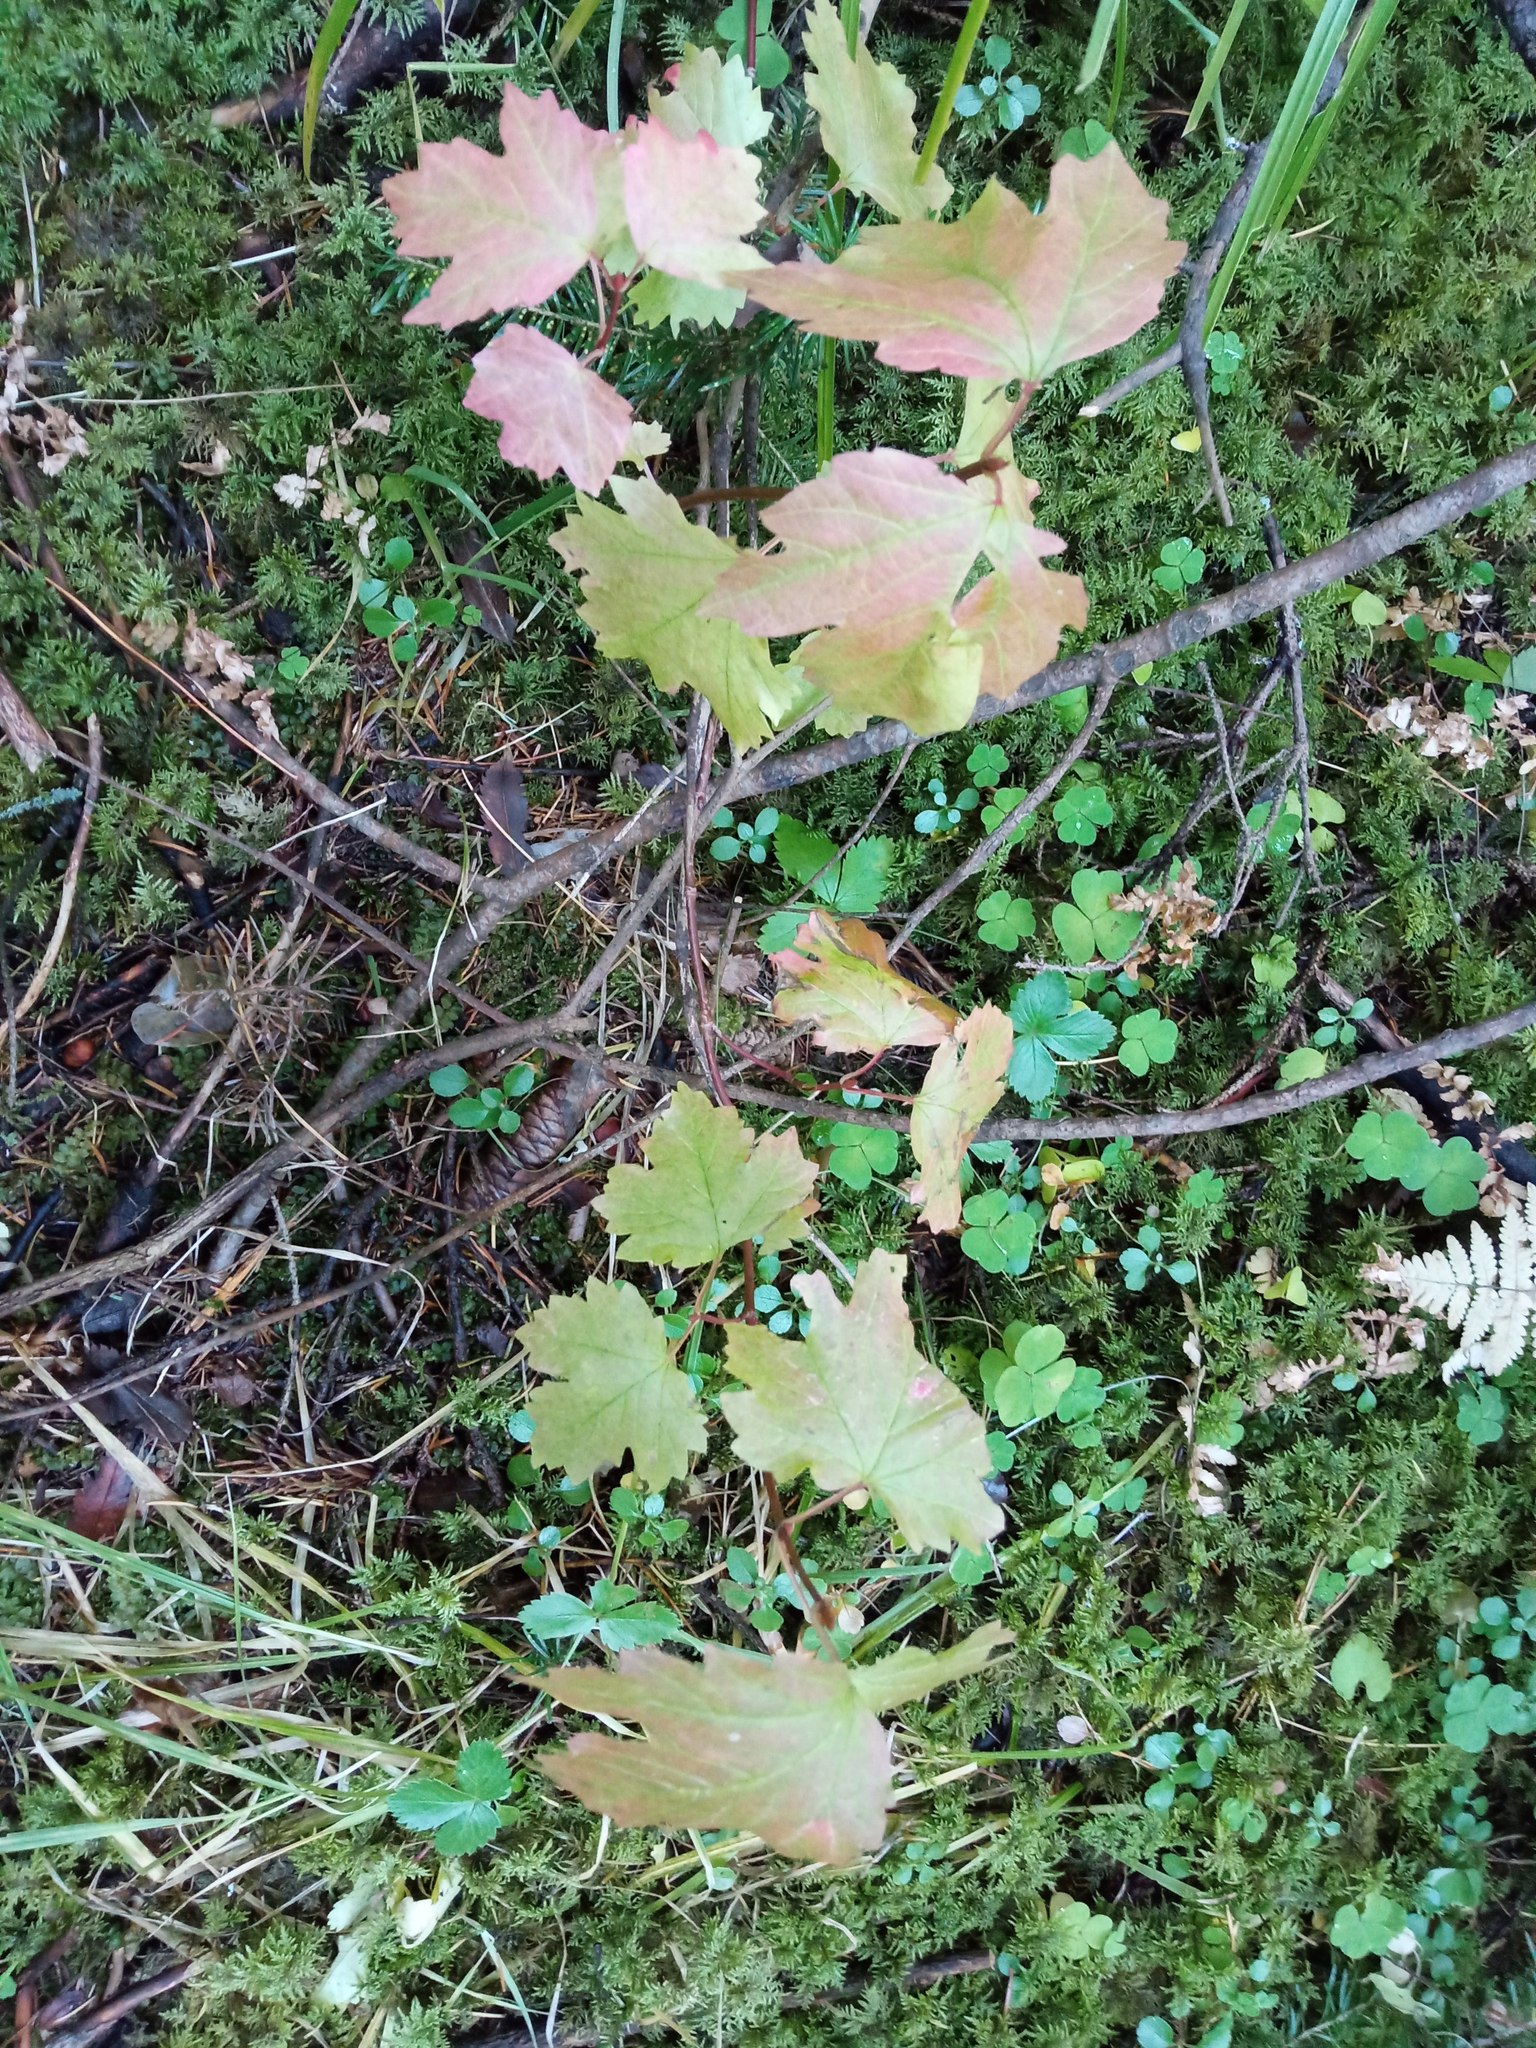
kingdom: Plantae
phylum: Tracheophyta
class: Magnoliopsida
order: Dipsacales
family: Viburnaceae
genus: Viburnum
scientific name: Viburnum opulus
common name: Guelder-rose
